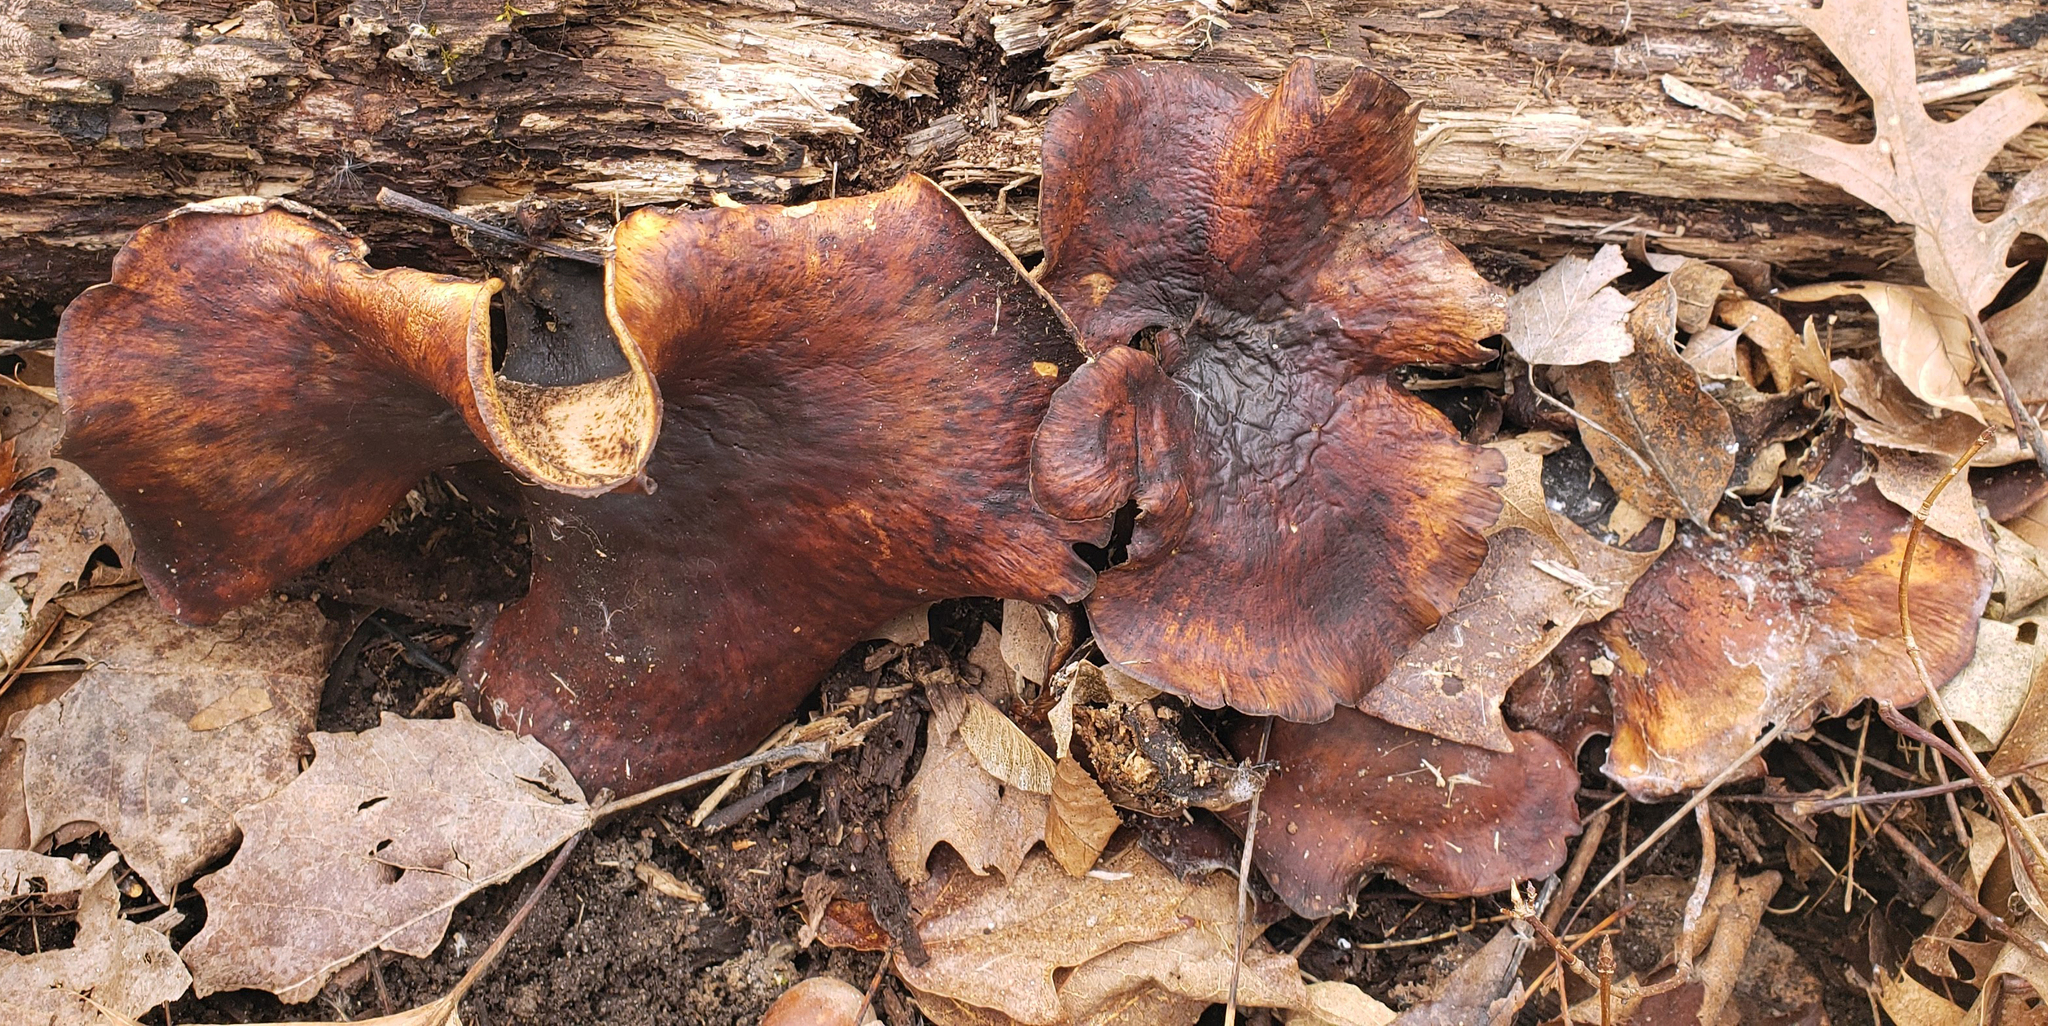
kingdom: Fungi
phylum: Basidiomycota
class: Agaricomycetes
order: Polyporales
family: Polyporaceae
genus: Picipes
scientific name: Picipes badius
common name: Bay polypore
